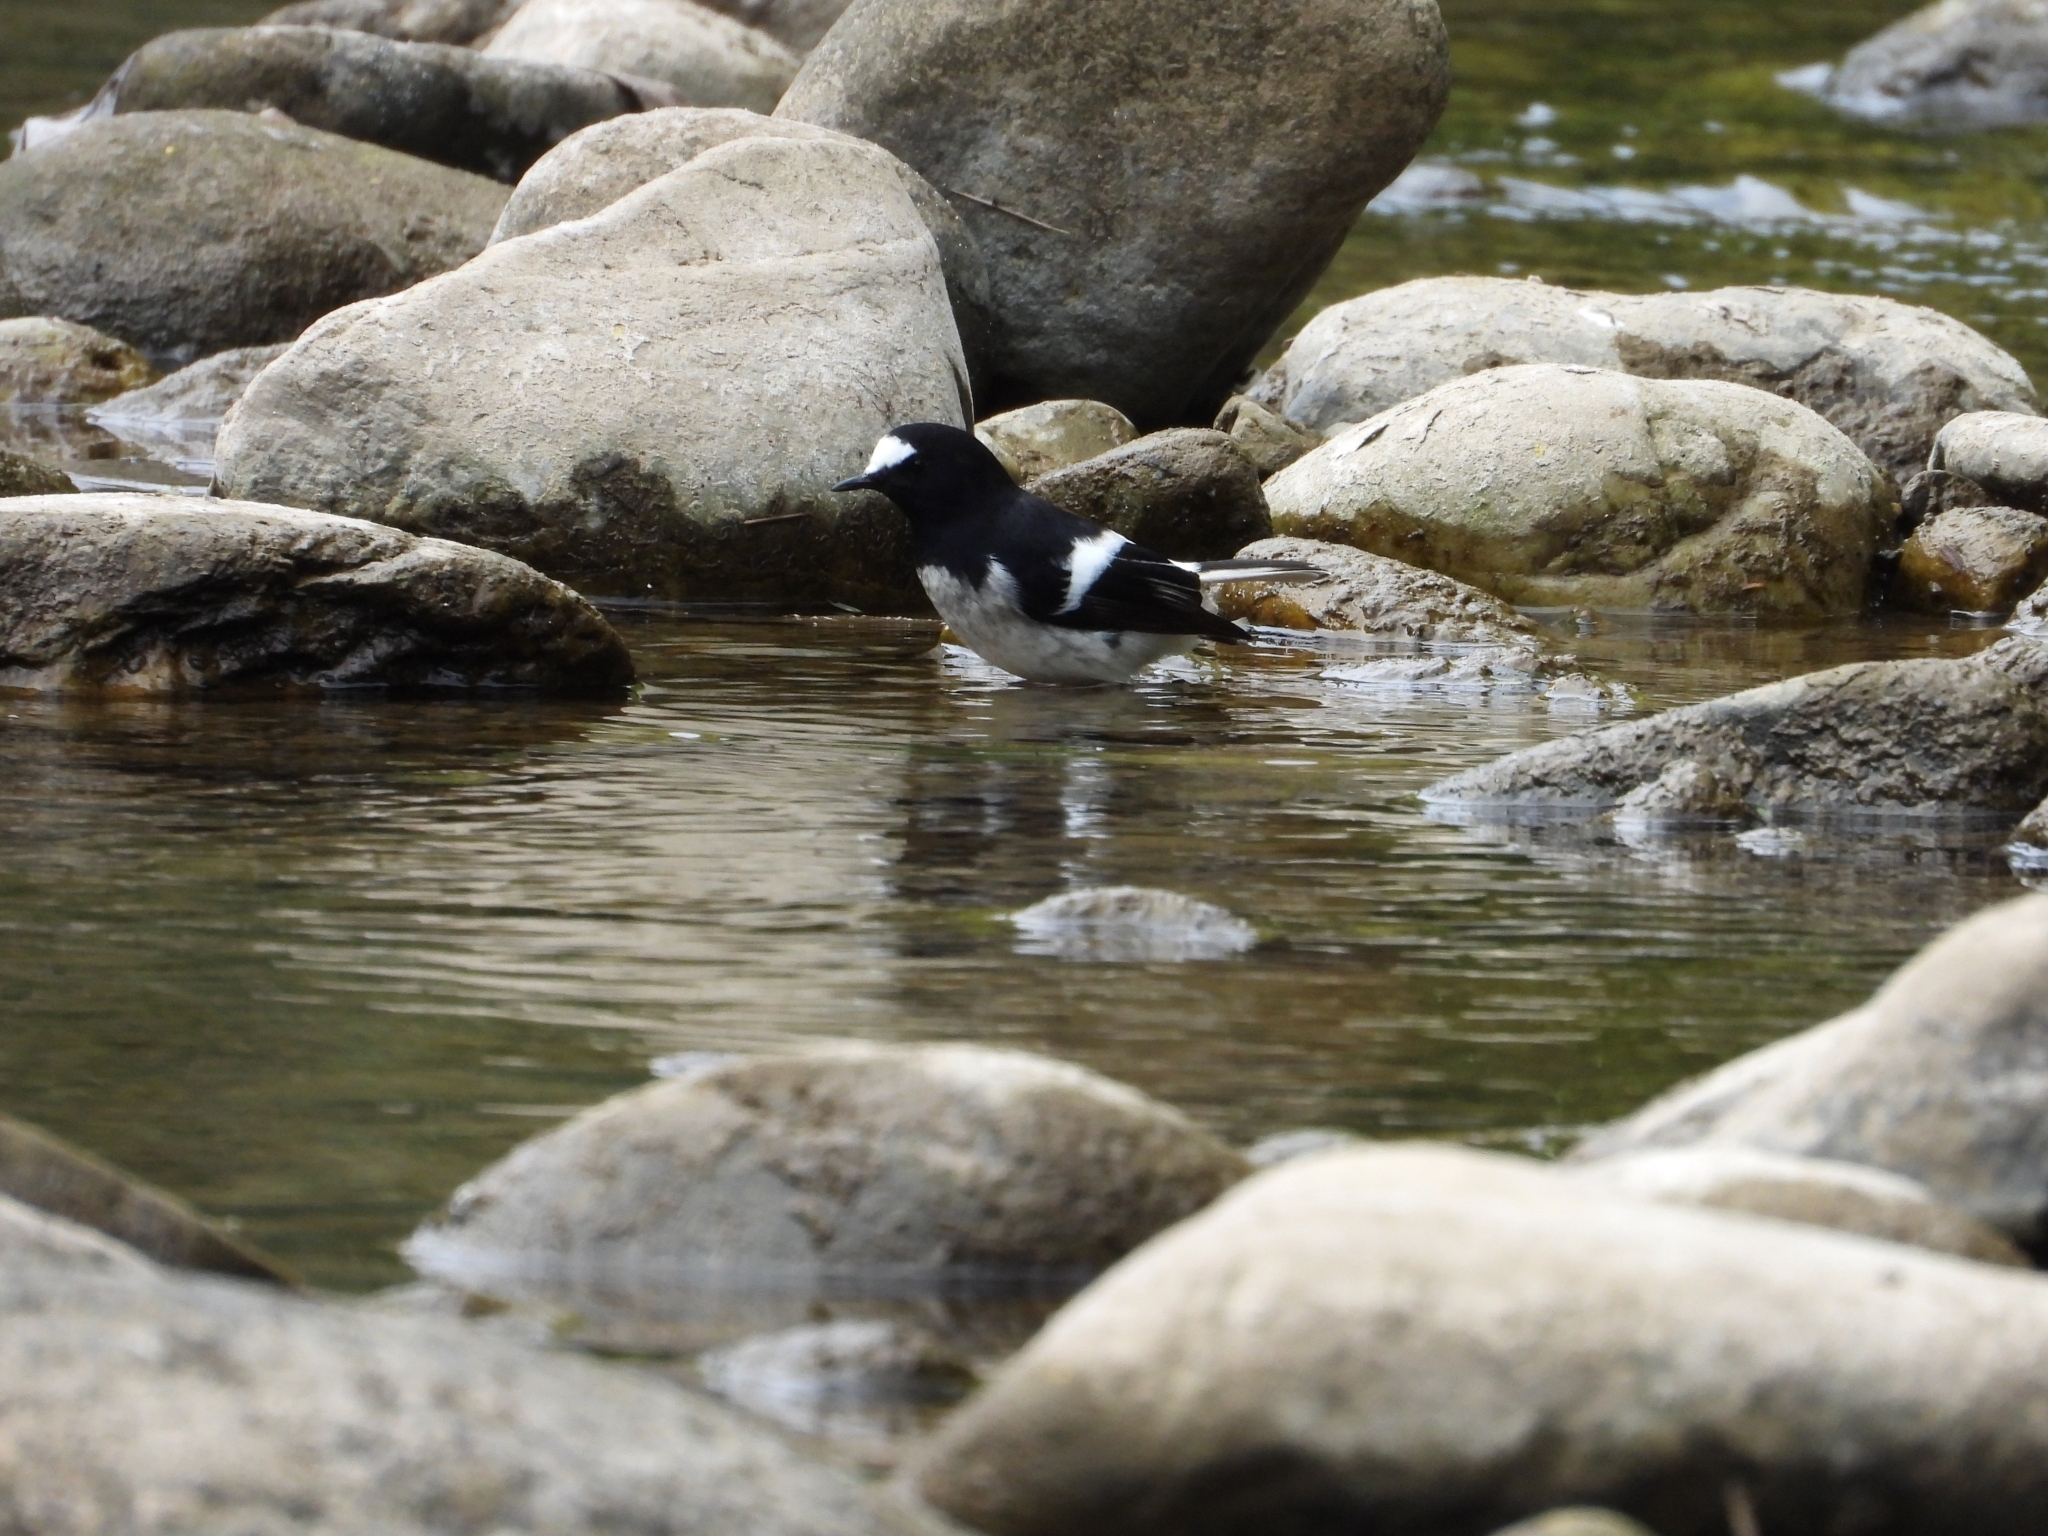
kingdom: Animalia
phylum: Chordata
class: Aves
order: Passeriformes
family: Muscicapidae
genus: Enicurus
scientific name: Enicurus scouleri
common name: Little forktail
